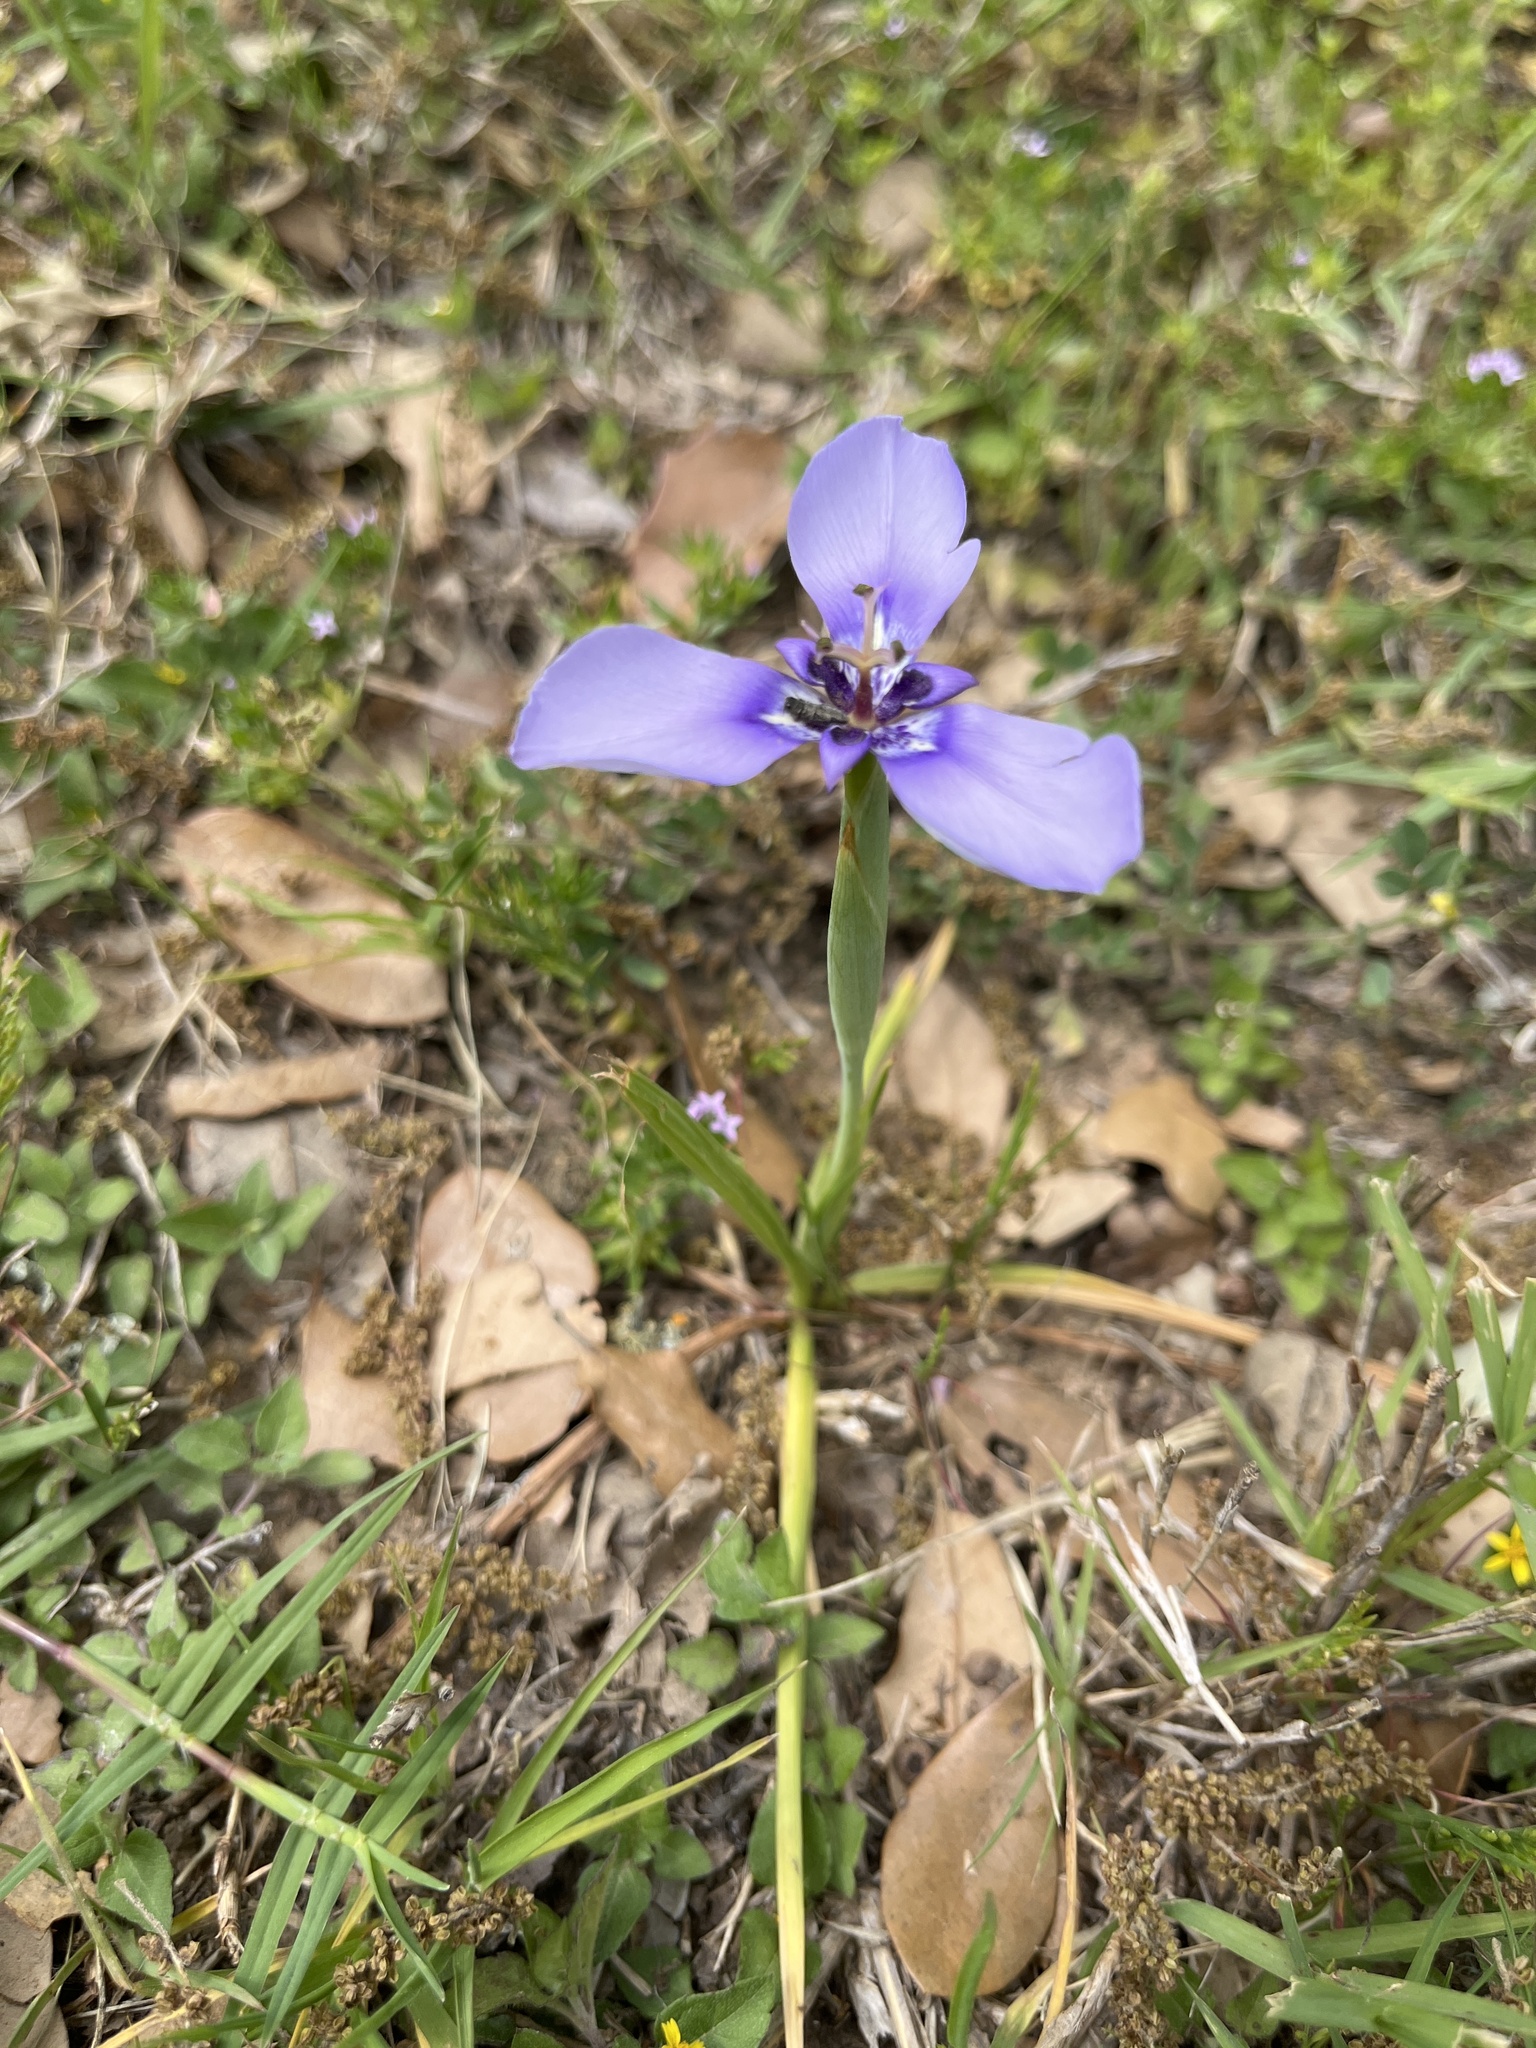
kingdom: Plantae
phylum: Tracheophyta
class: Liliopsida
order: Asparagales
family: Iridaceae
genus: Herbertia
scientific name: Herbertia lahue
